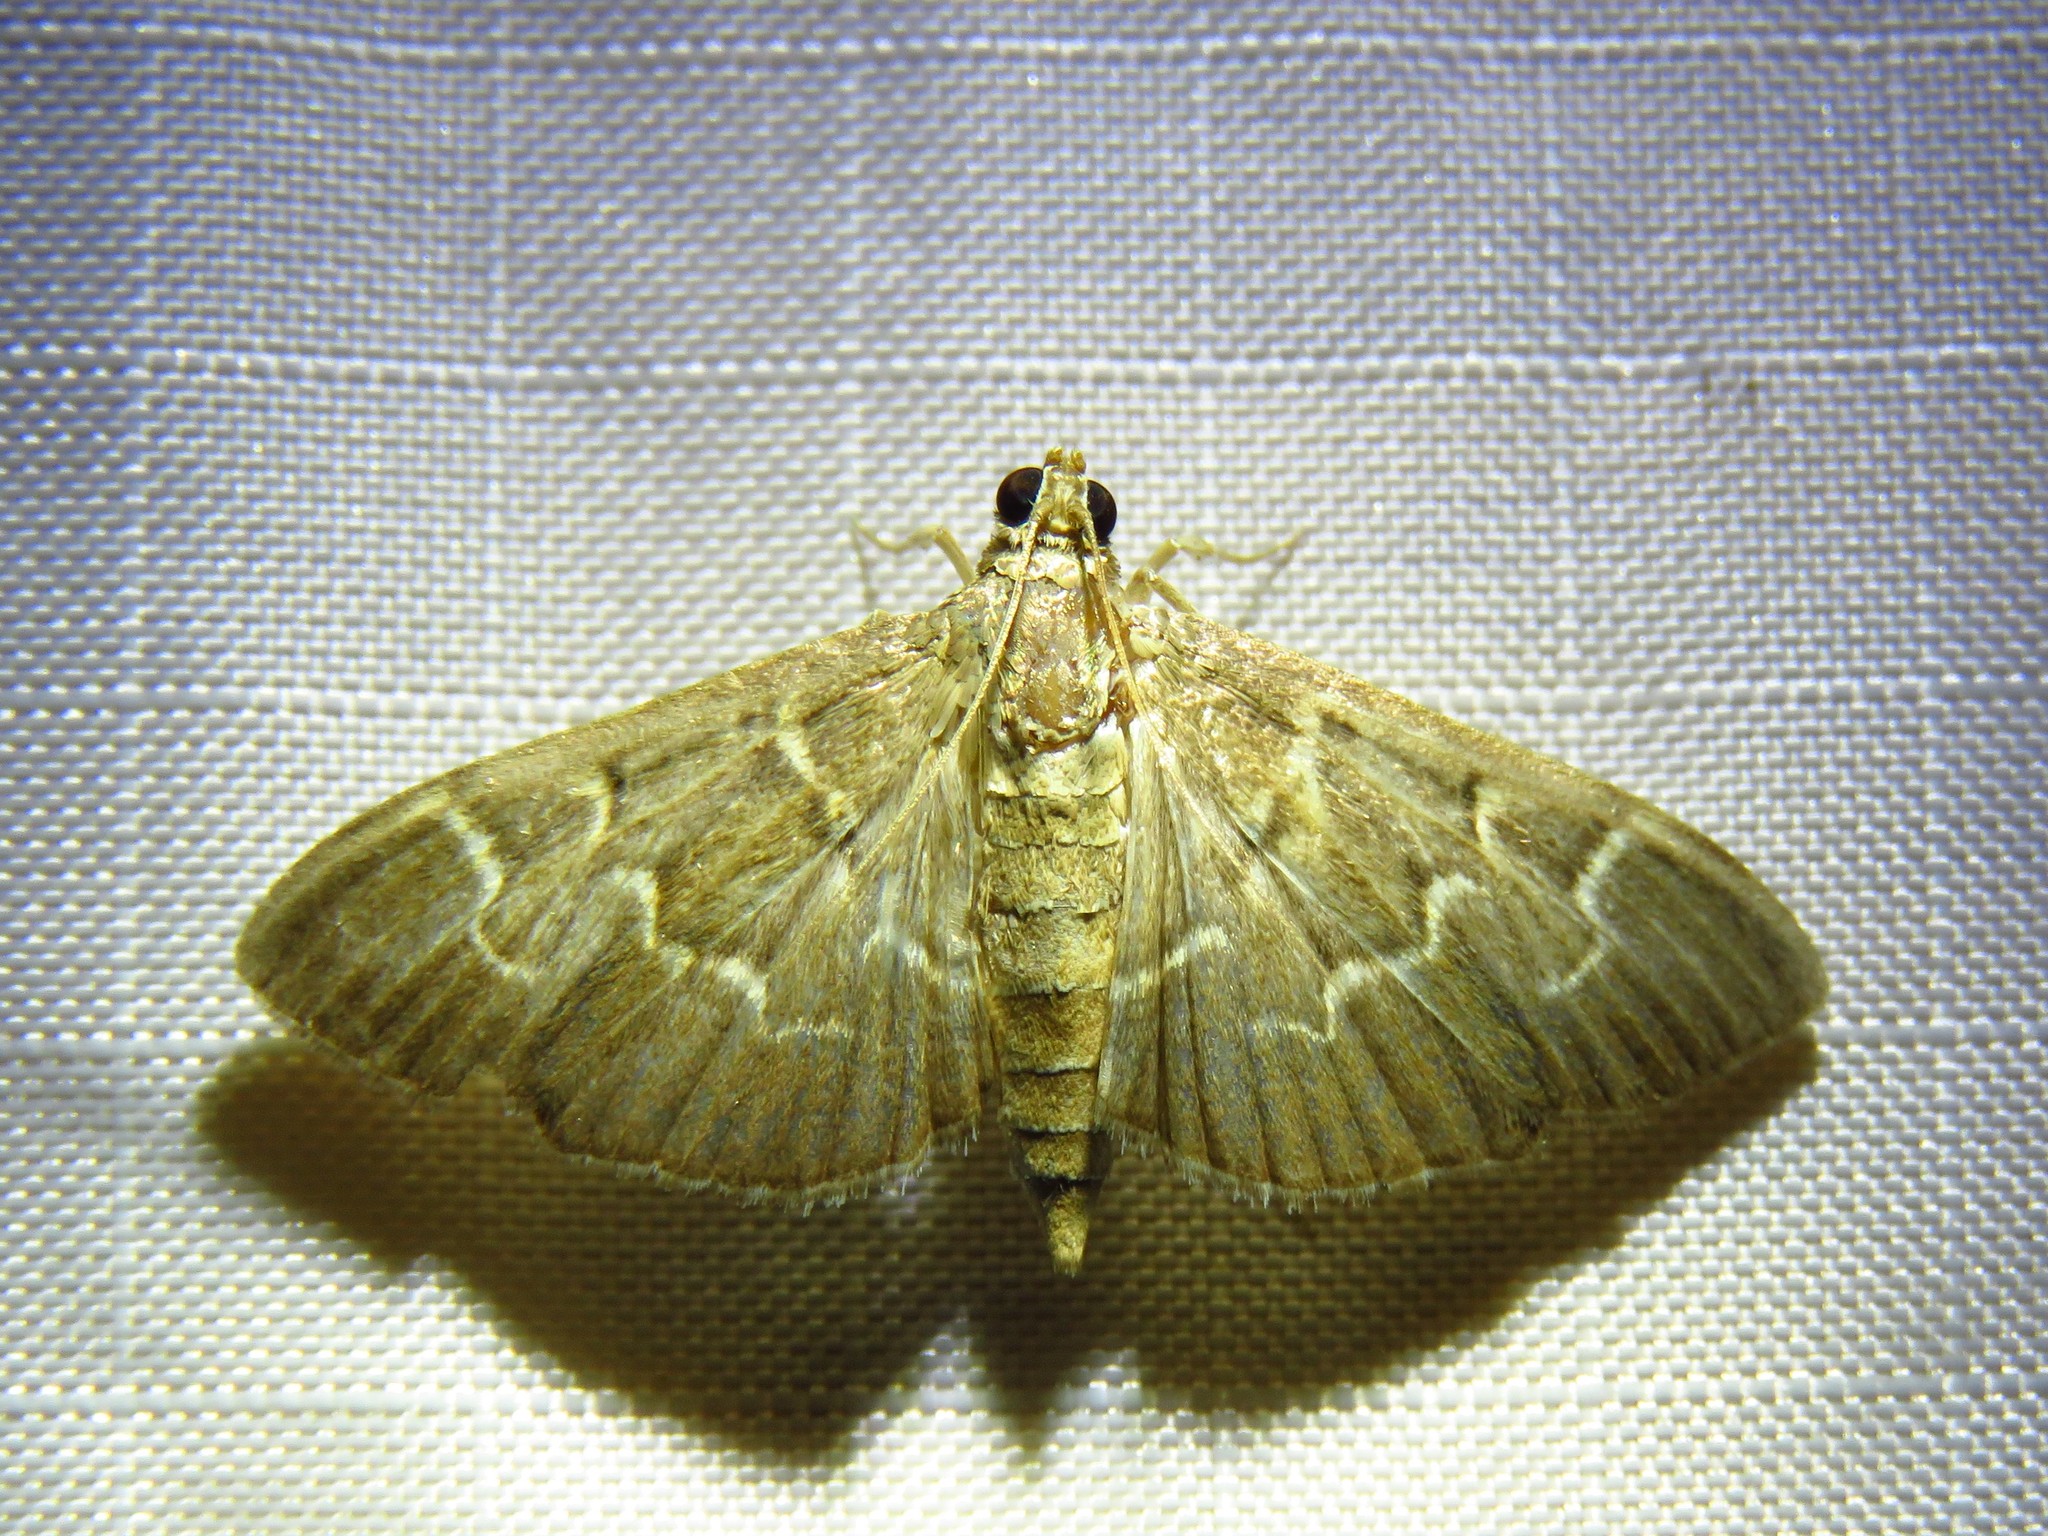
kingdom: Animalia
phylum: Arthropoda
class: Insecta
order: Lepidoptera
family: Crambidae
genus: Pilocrocis
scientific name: Pilocrocis ramentalis
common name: Scraped pilocrocis
